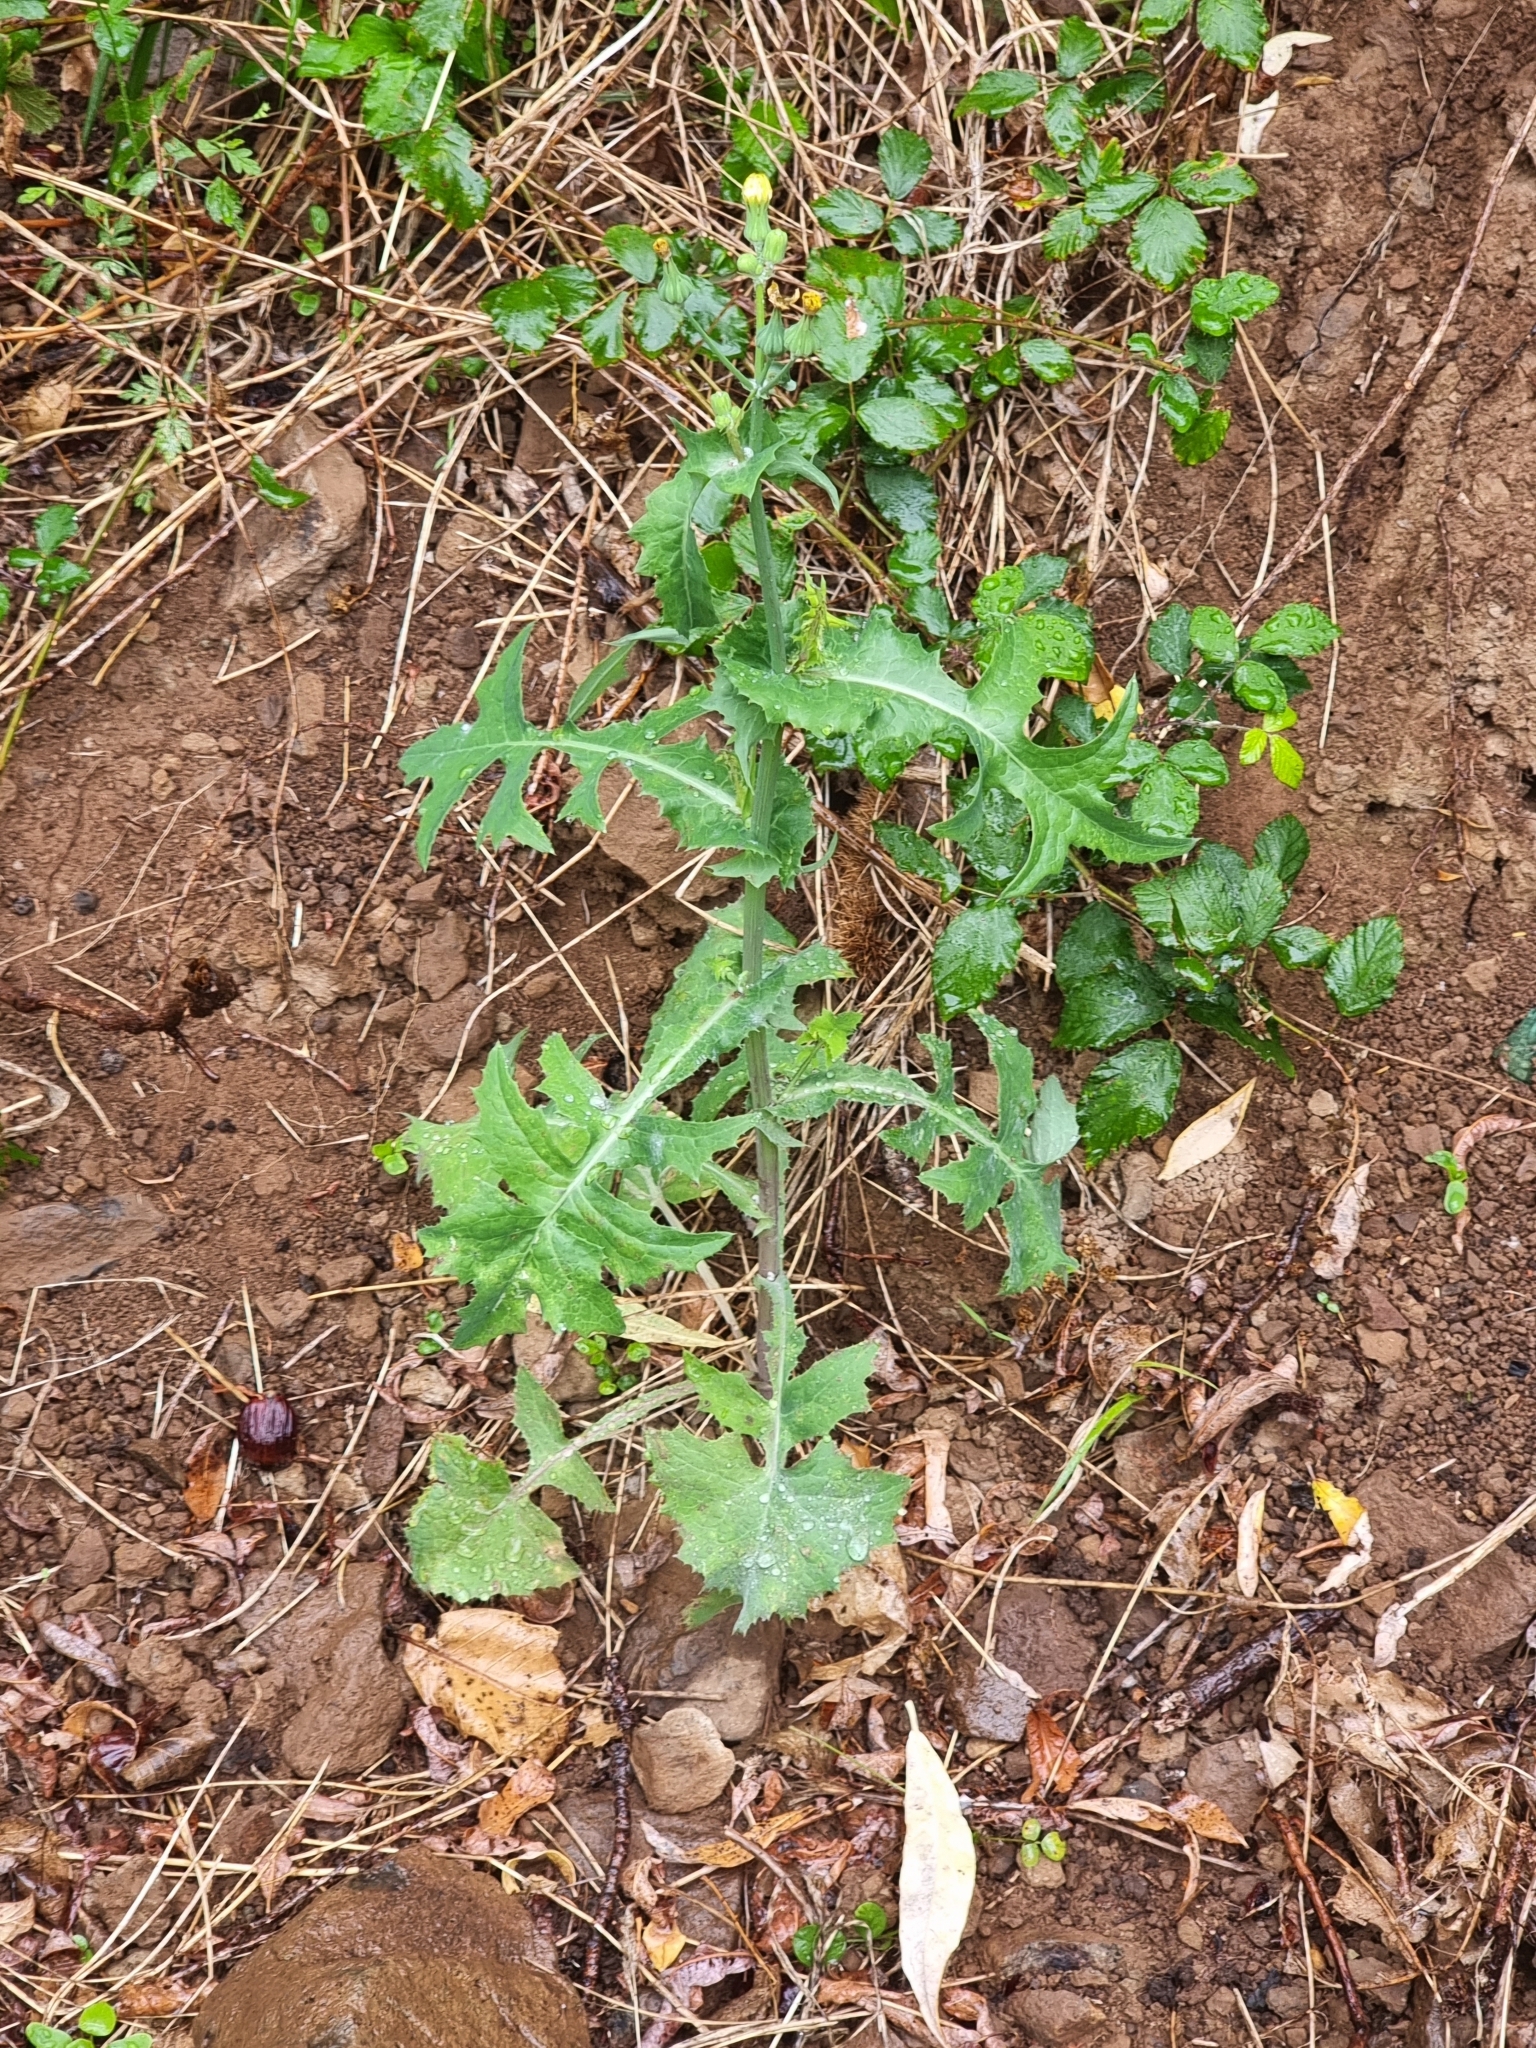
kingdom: Plantae
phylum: Tracheophyta
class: Magnoliopsida
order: Asterales
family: Asteraceae
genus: Sonchus
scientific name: Sonchus oleraceus
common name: Common sowthistle
